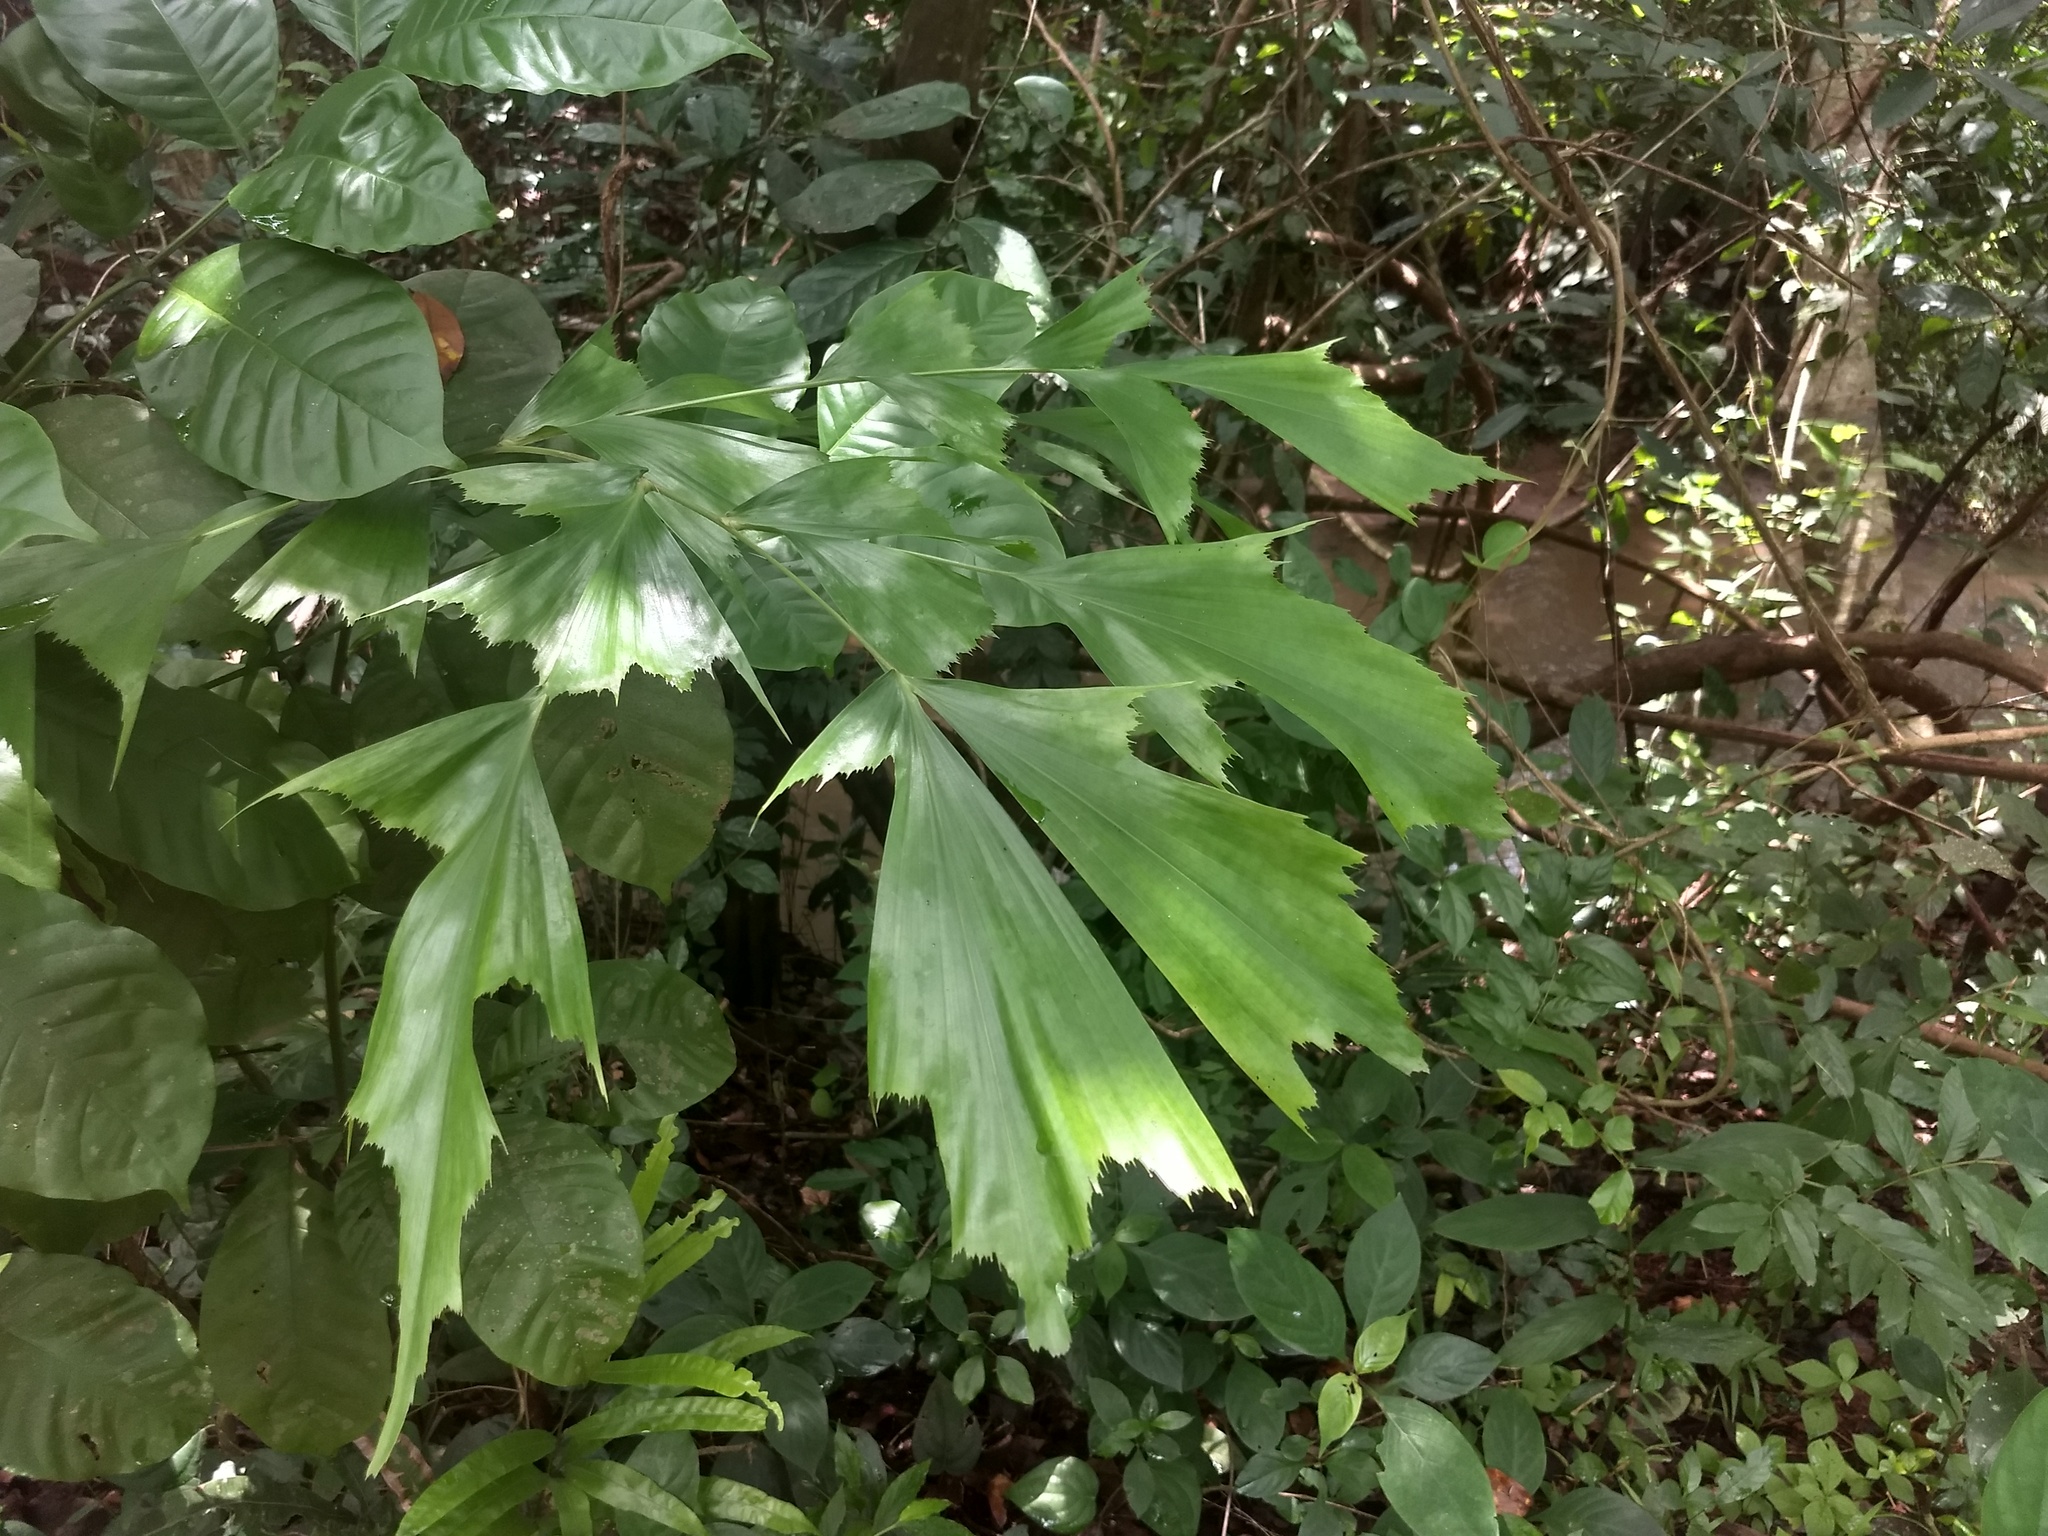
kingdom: Plantae
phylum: Tracheophyta
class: Liliopsida
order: Arecales
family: Arecaceae
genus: Caryota
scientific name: Caryota urens
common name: Jaggery palm
